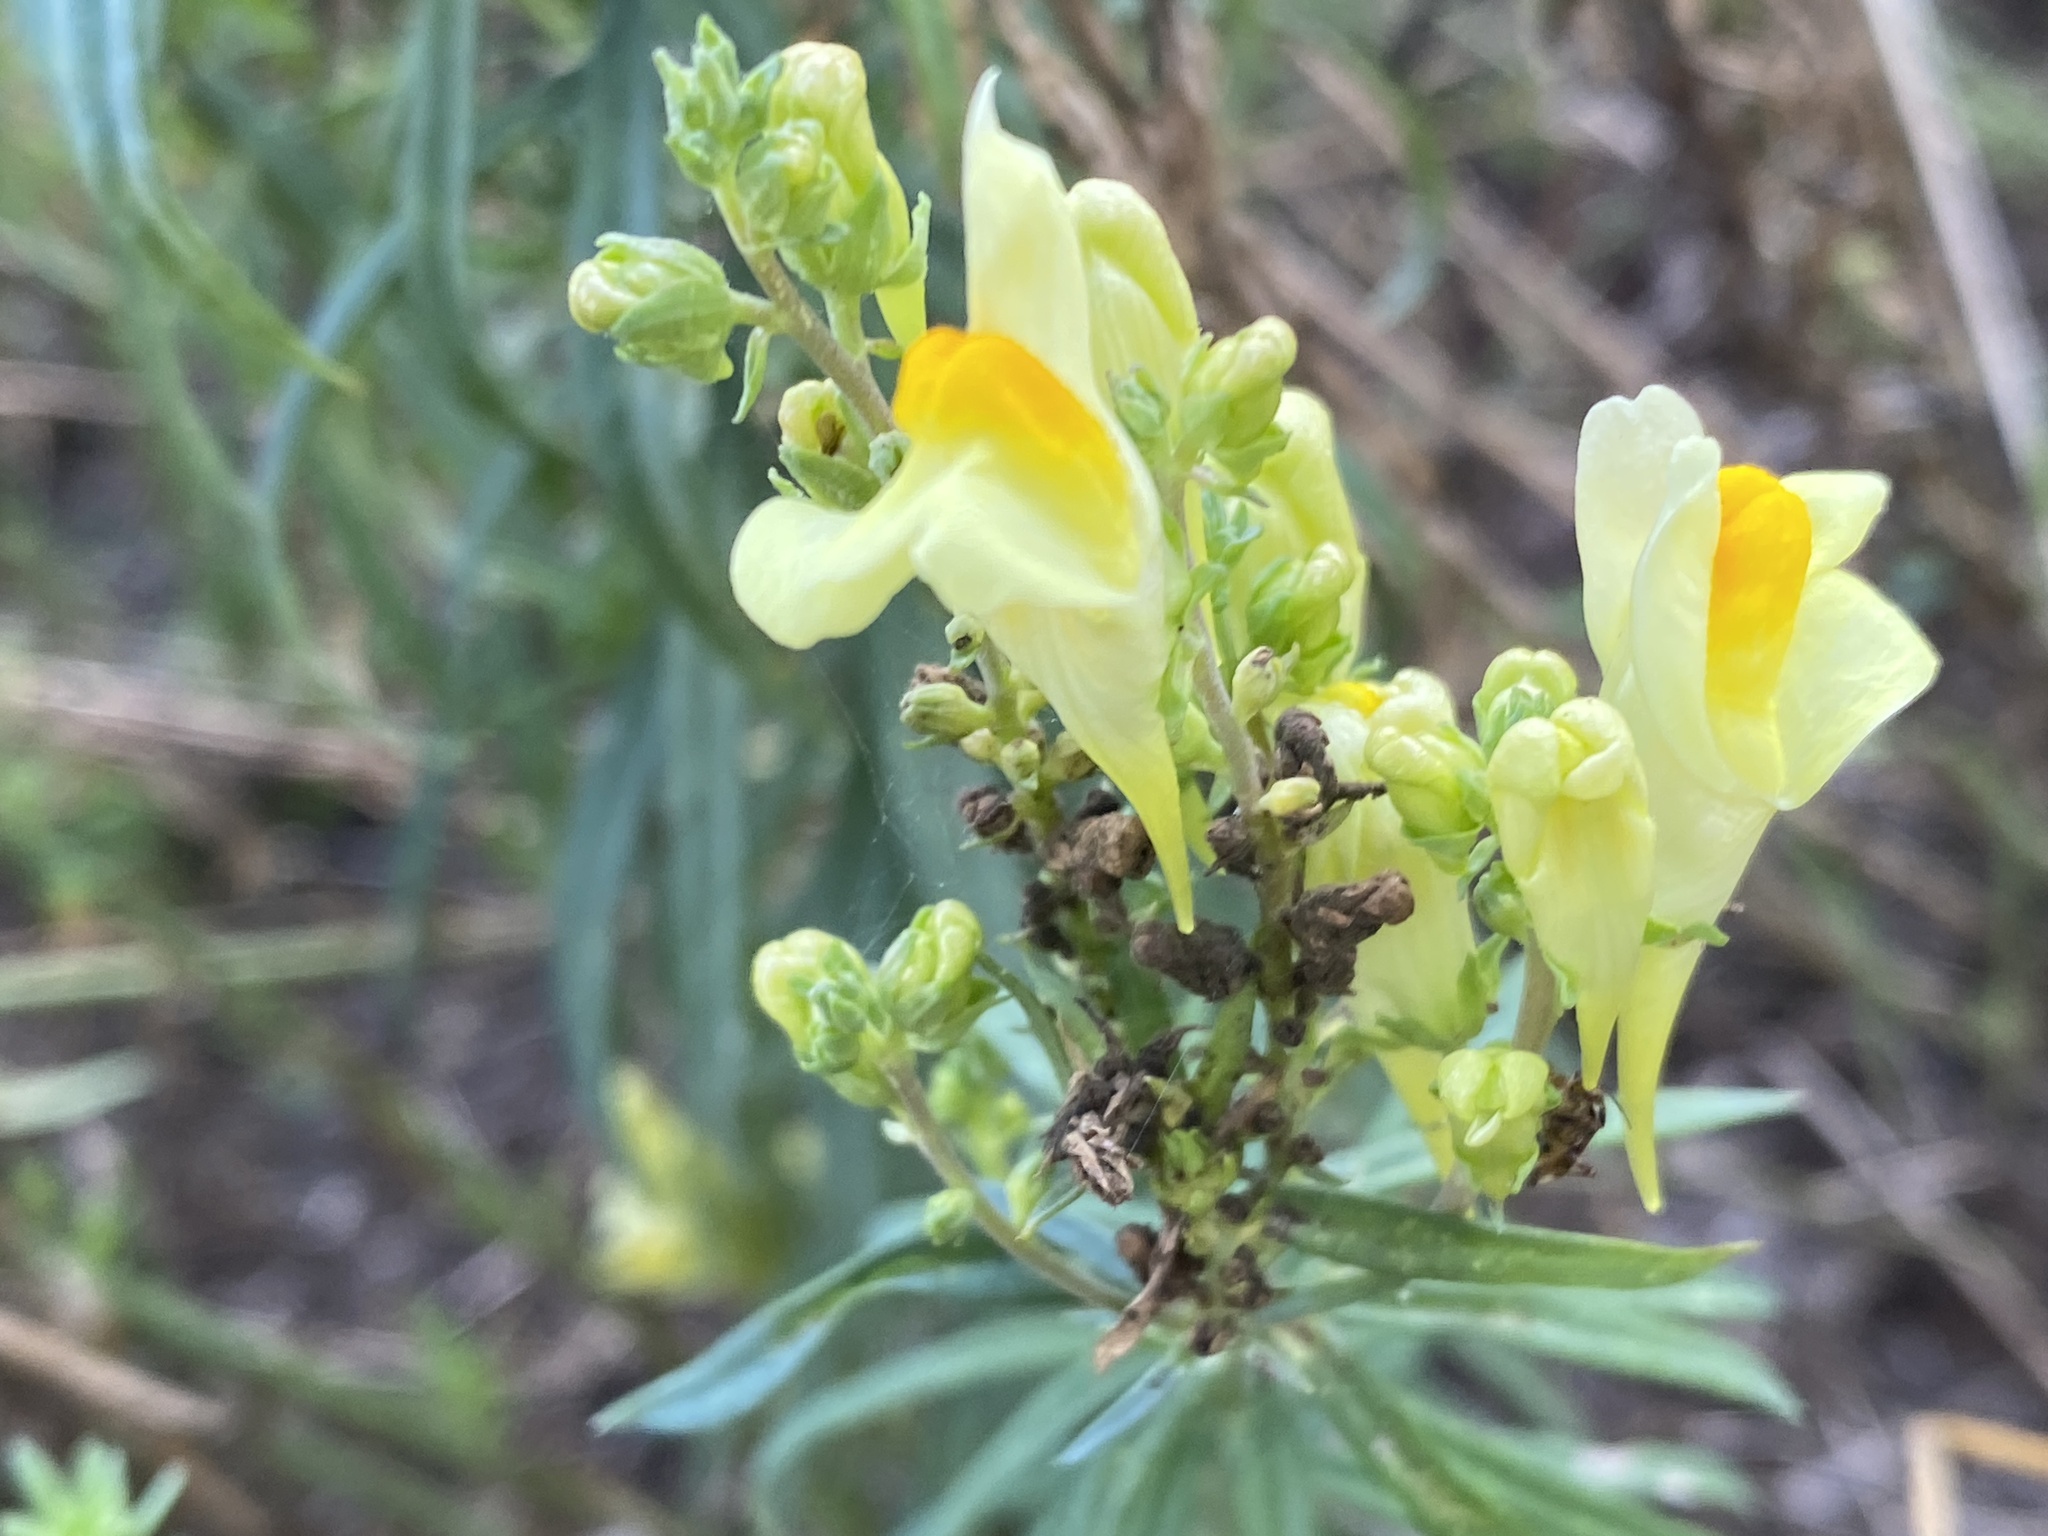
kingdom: Plantae
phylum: Tracheophyta
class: Magnoliopsida
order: Lamiales
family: Plantaginaceae
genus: Linaria
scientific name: Linaria vulgaris
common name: Butter and eggs
